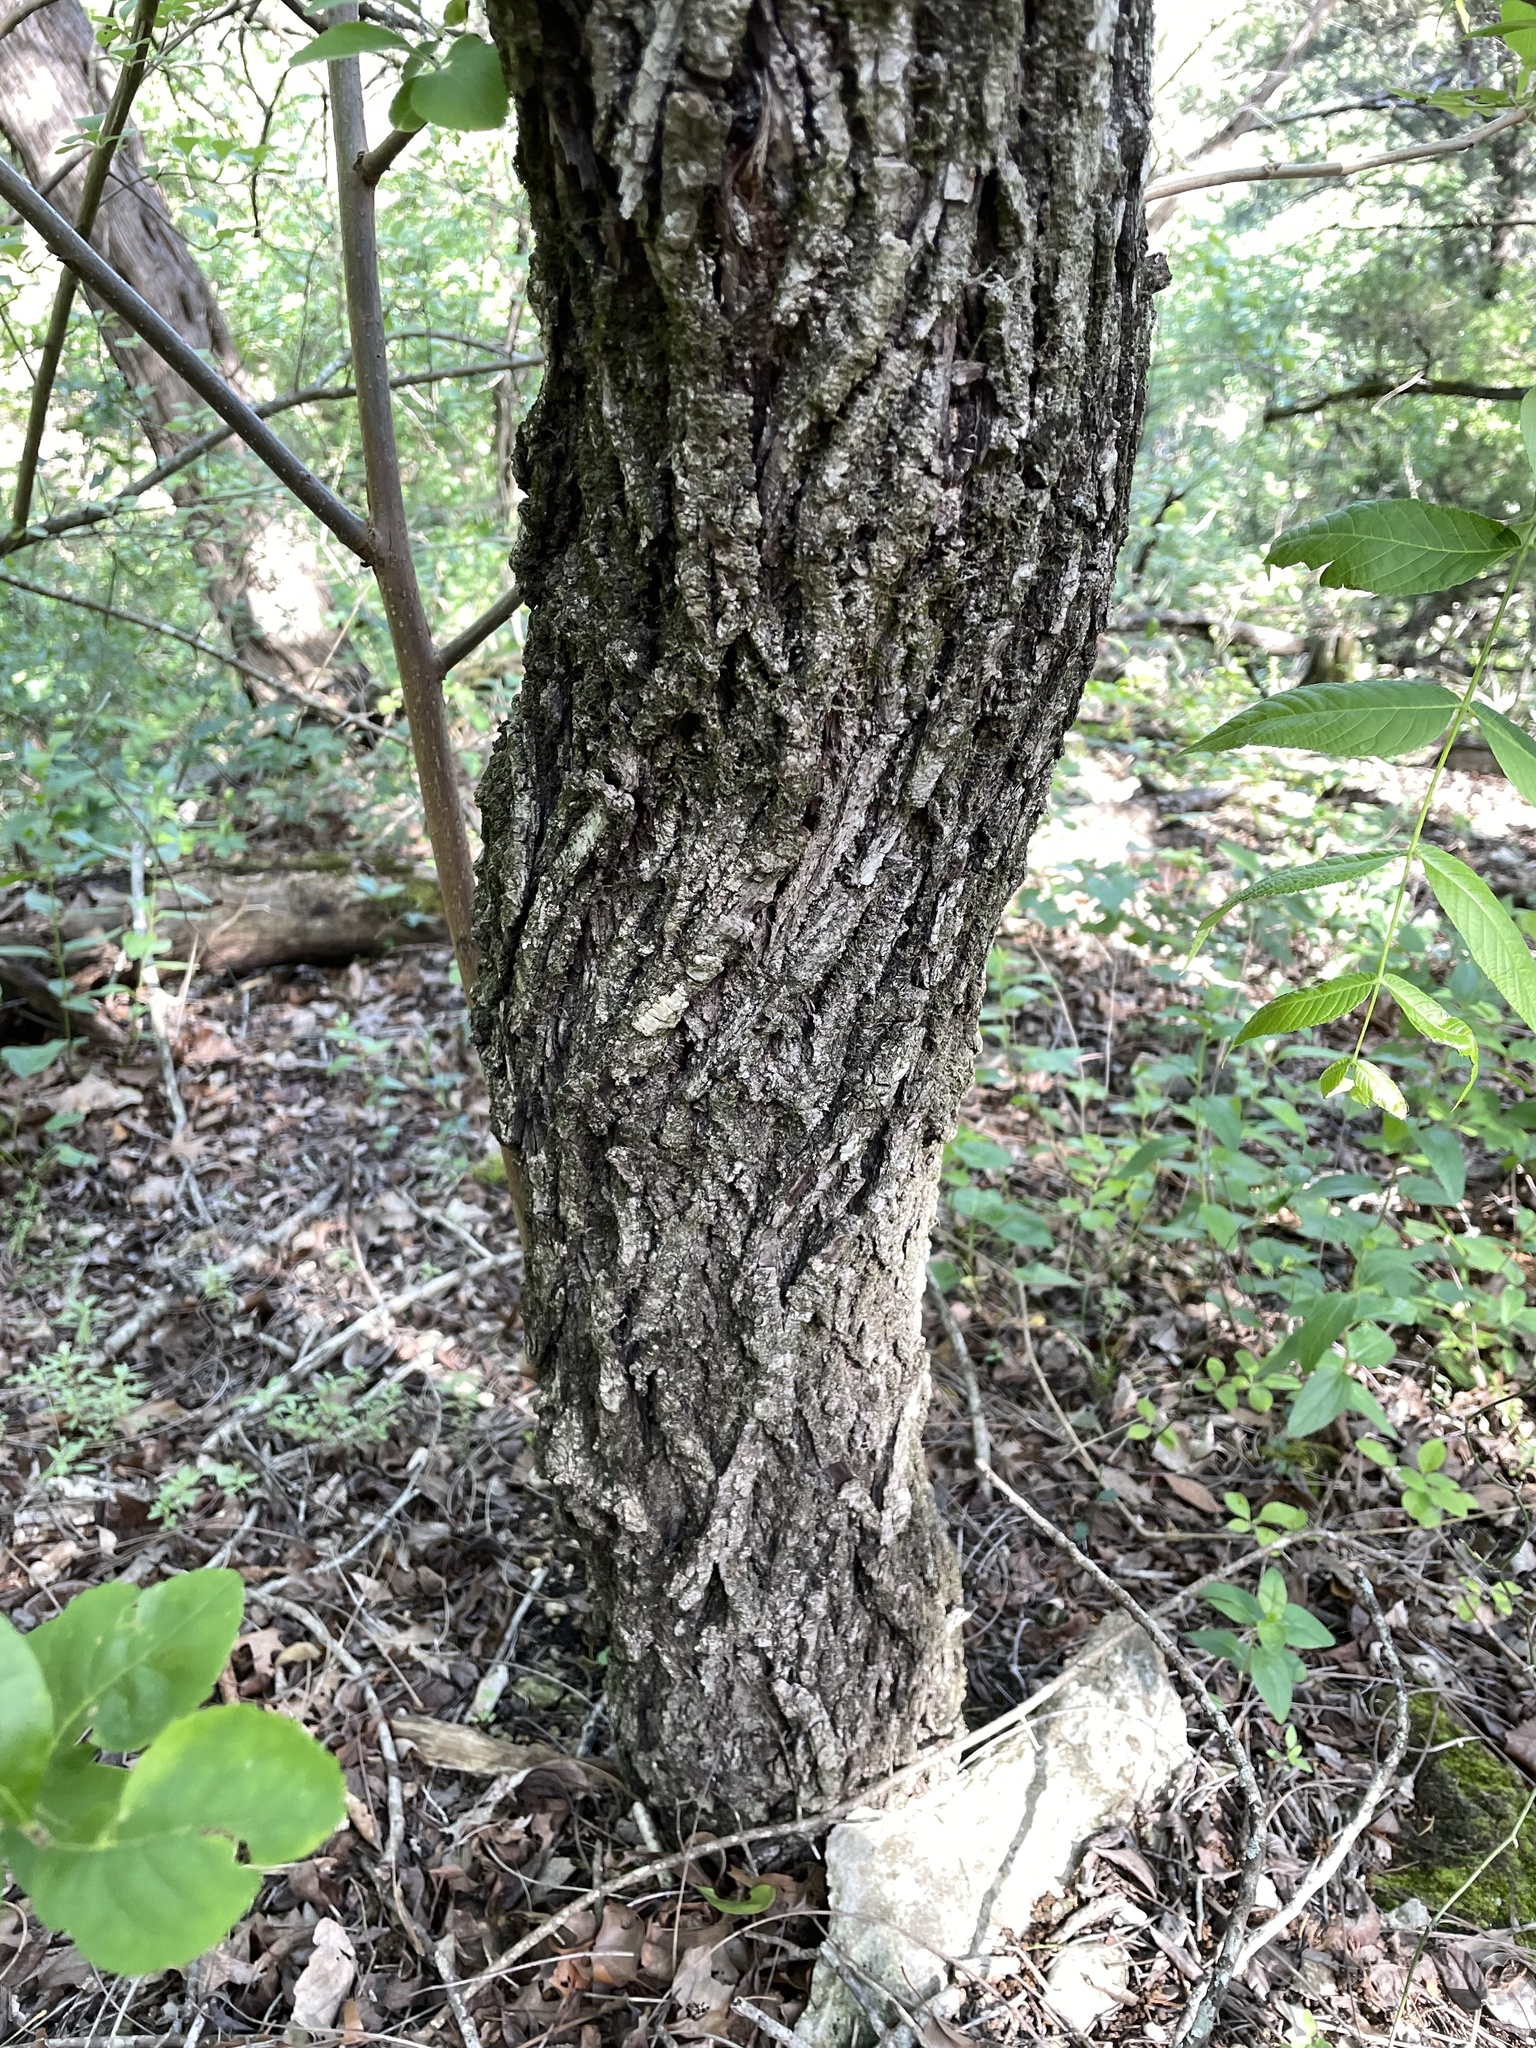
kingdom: Plantae
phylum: Tracheophyta
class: Magnoliopsida
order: Fagales
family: Juglandaceae
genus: Juglans
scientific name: Juglans major
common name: Arizona walnut
